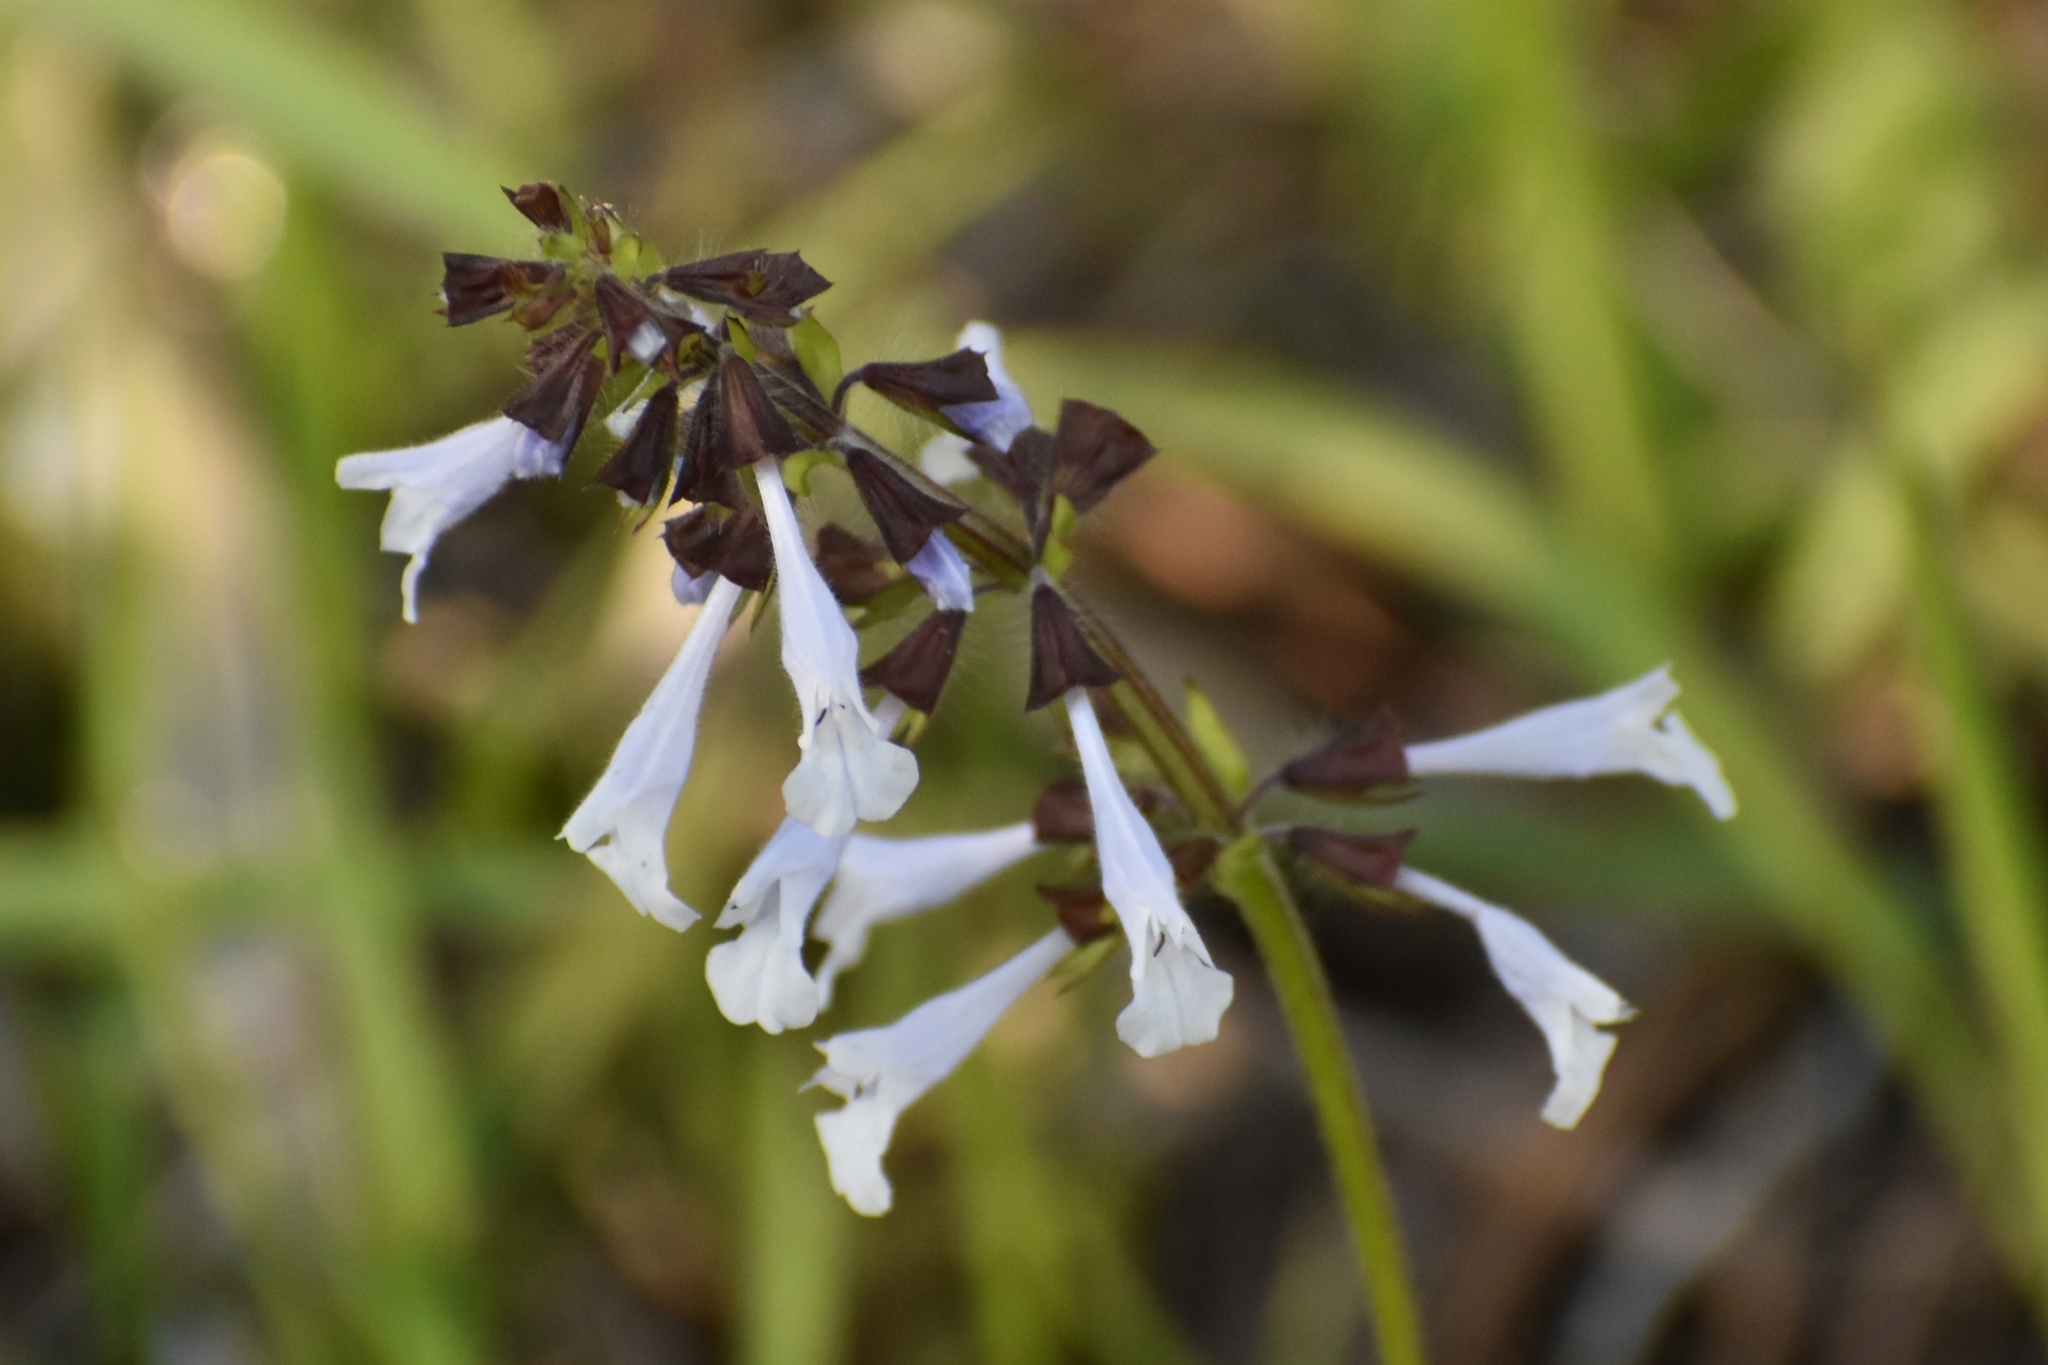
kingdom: Plantae
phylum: Tracheophyta
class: Magnoliopsida
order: Lamiales
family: Lamiaceae
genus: Salvia
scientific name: Salvia lyrata
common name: Cancerweed
